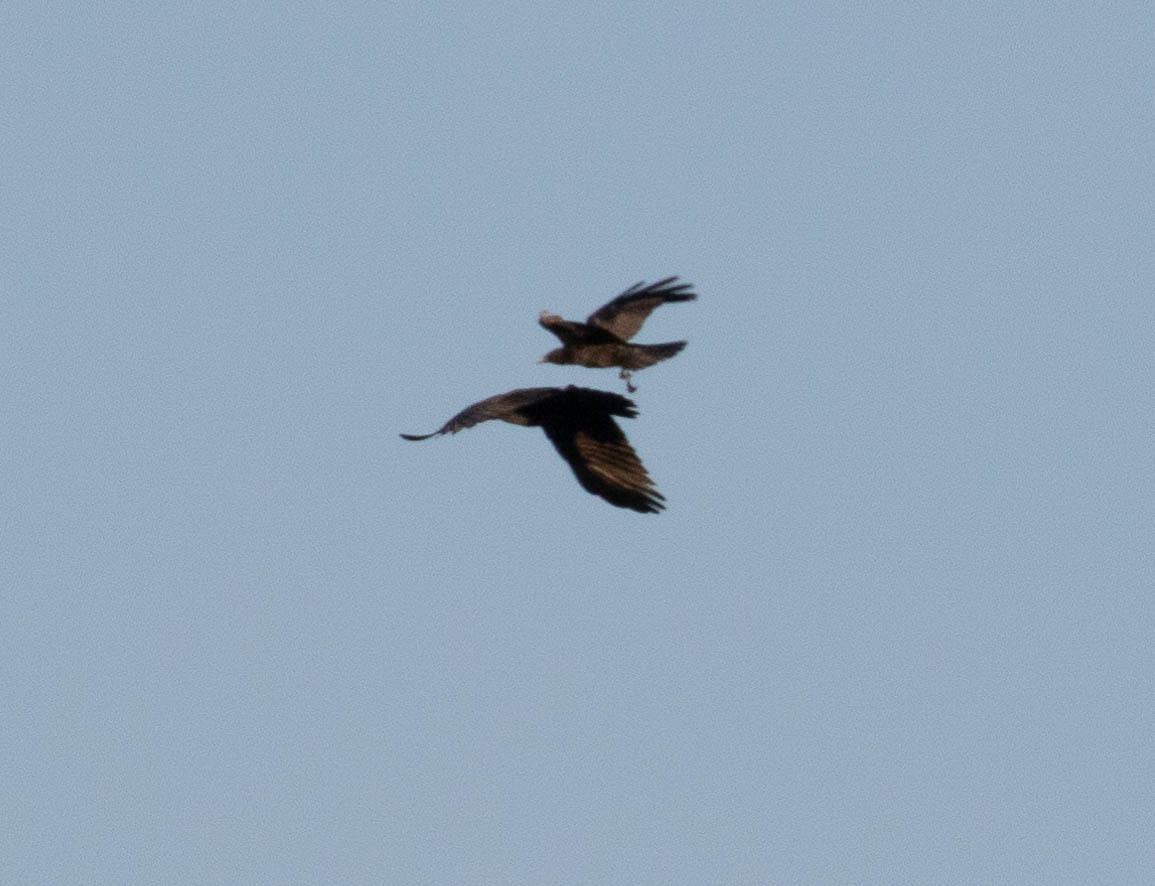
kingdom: Animalia
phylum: Chordata
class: Aves
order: Passeriformes
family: Corvidae
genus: Corvus
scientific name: Corvus corax
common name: Common raven
